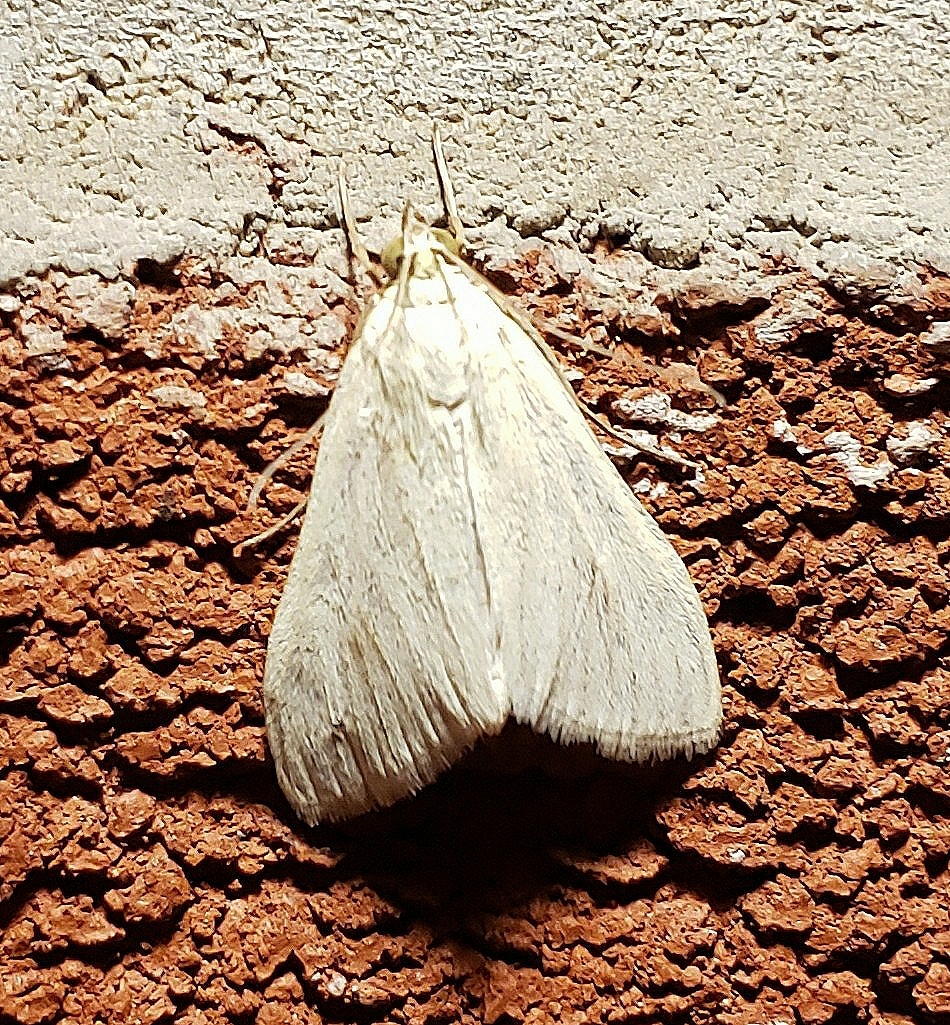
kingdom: Animalia
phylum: Arthropoda
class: Insecta
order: Lepidoptera
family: Crambidae
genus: Sitochroa
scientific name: Sitochroa palealis
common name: Greenish-yellow sitochroa moth
